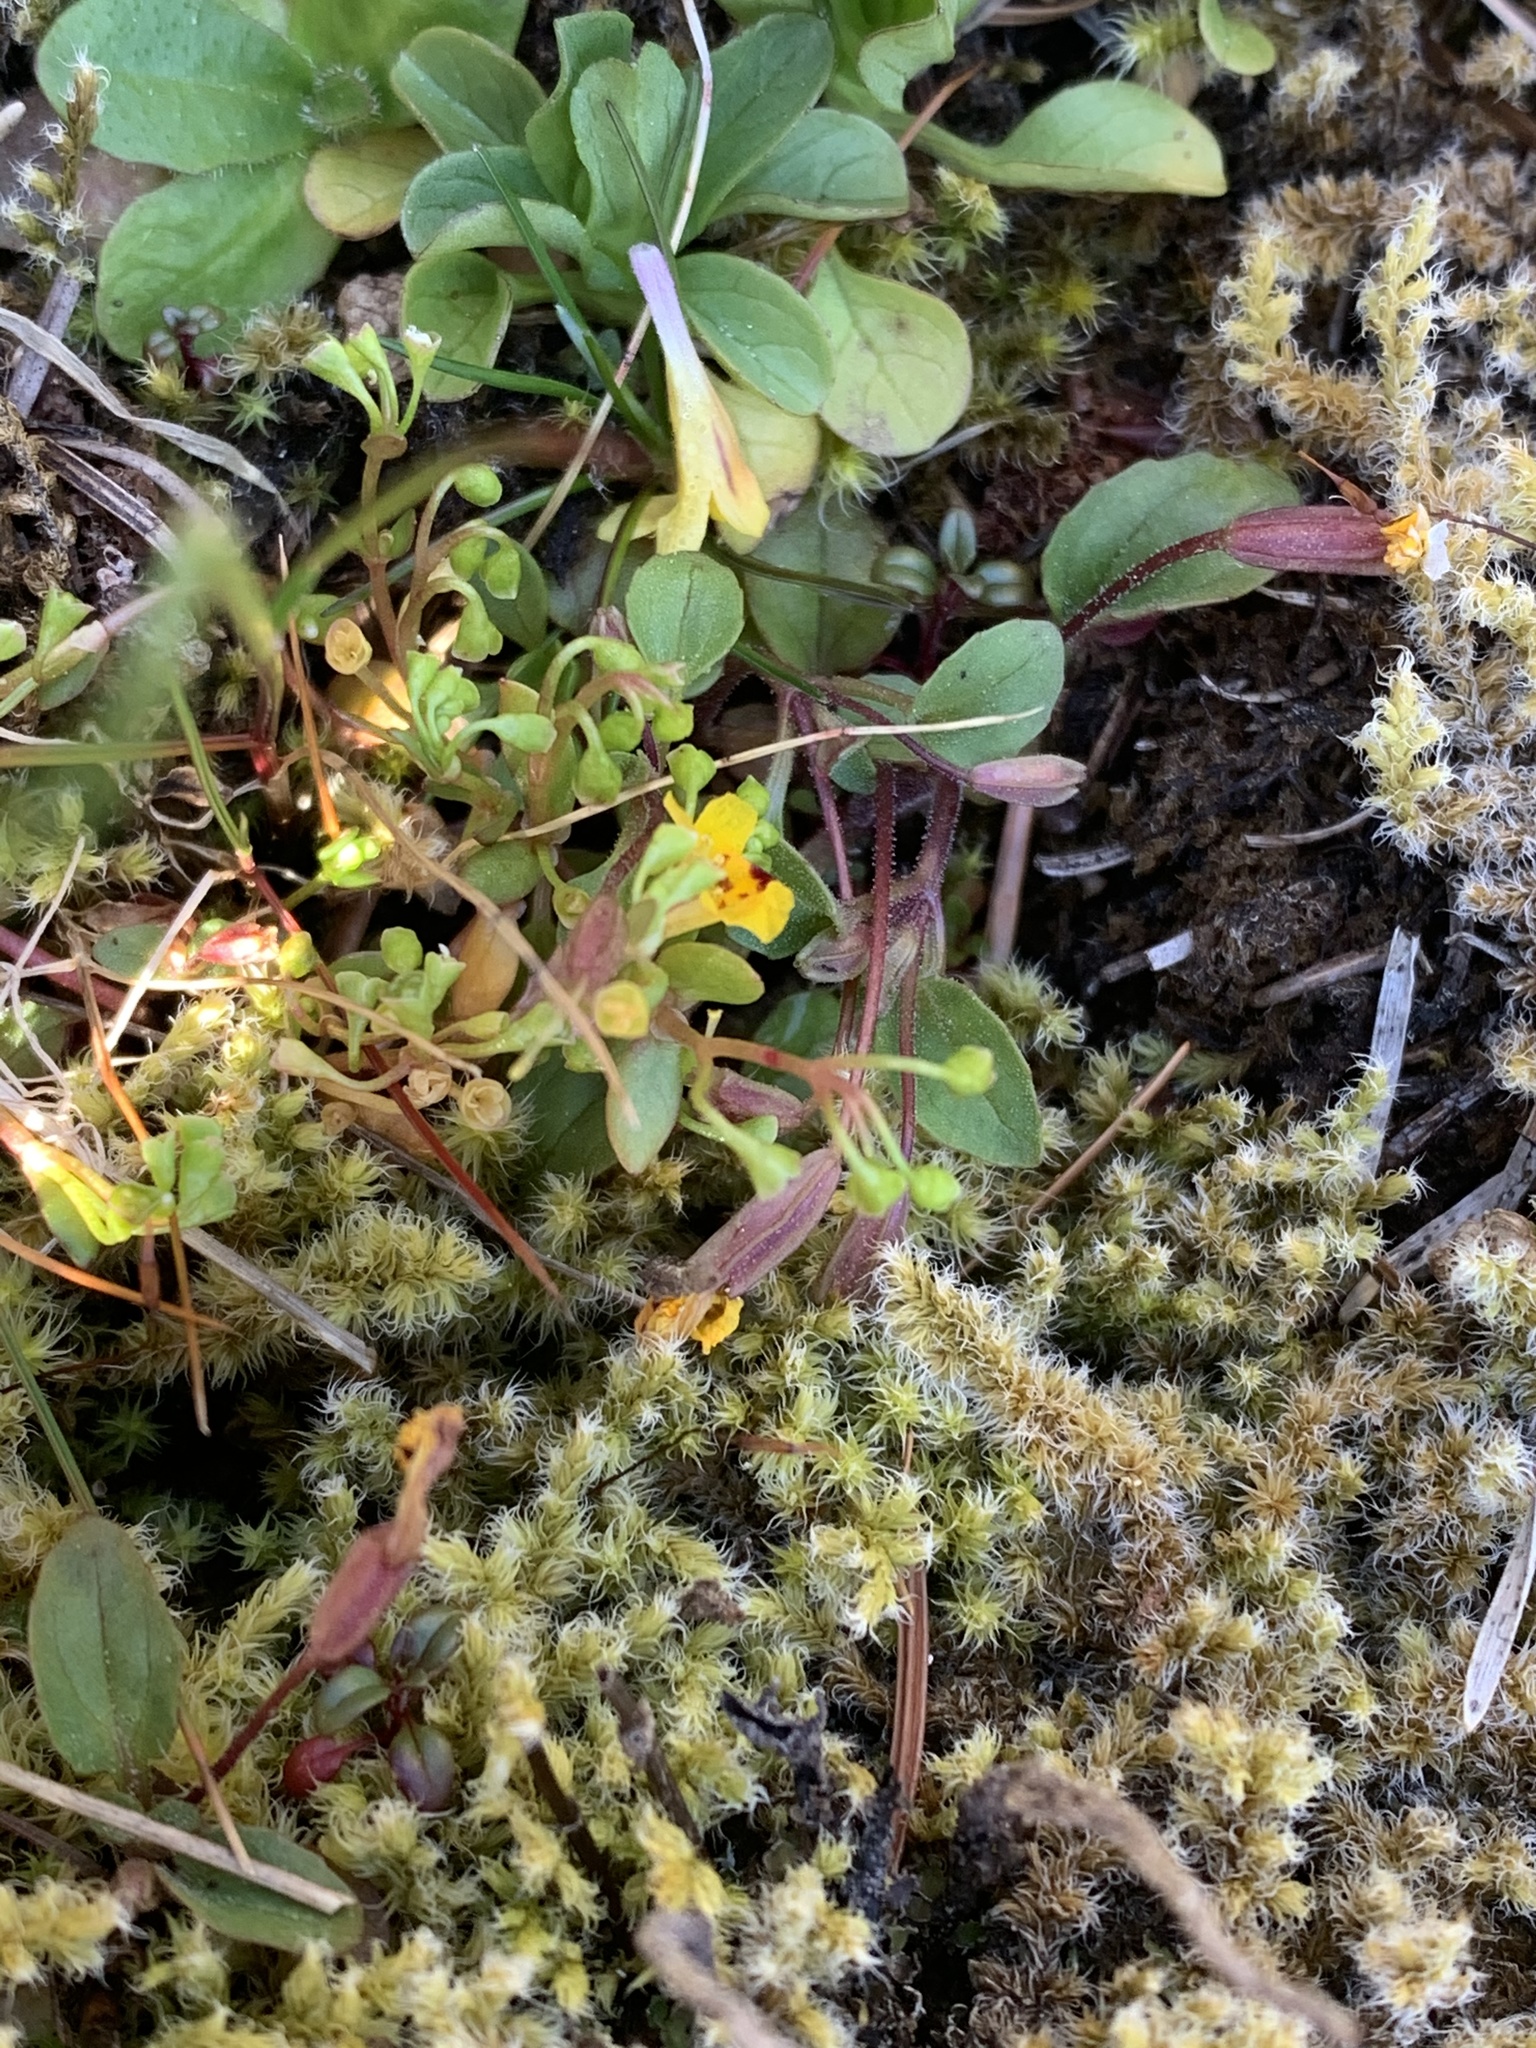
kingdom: Plantae
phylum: Tracheophyta
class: Magnoliopsida
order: Lamiales
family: Phrymaceae
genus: Erythranthe
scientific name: Erythranthe alsinoides
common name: Chickweed monkeyflower
